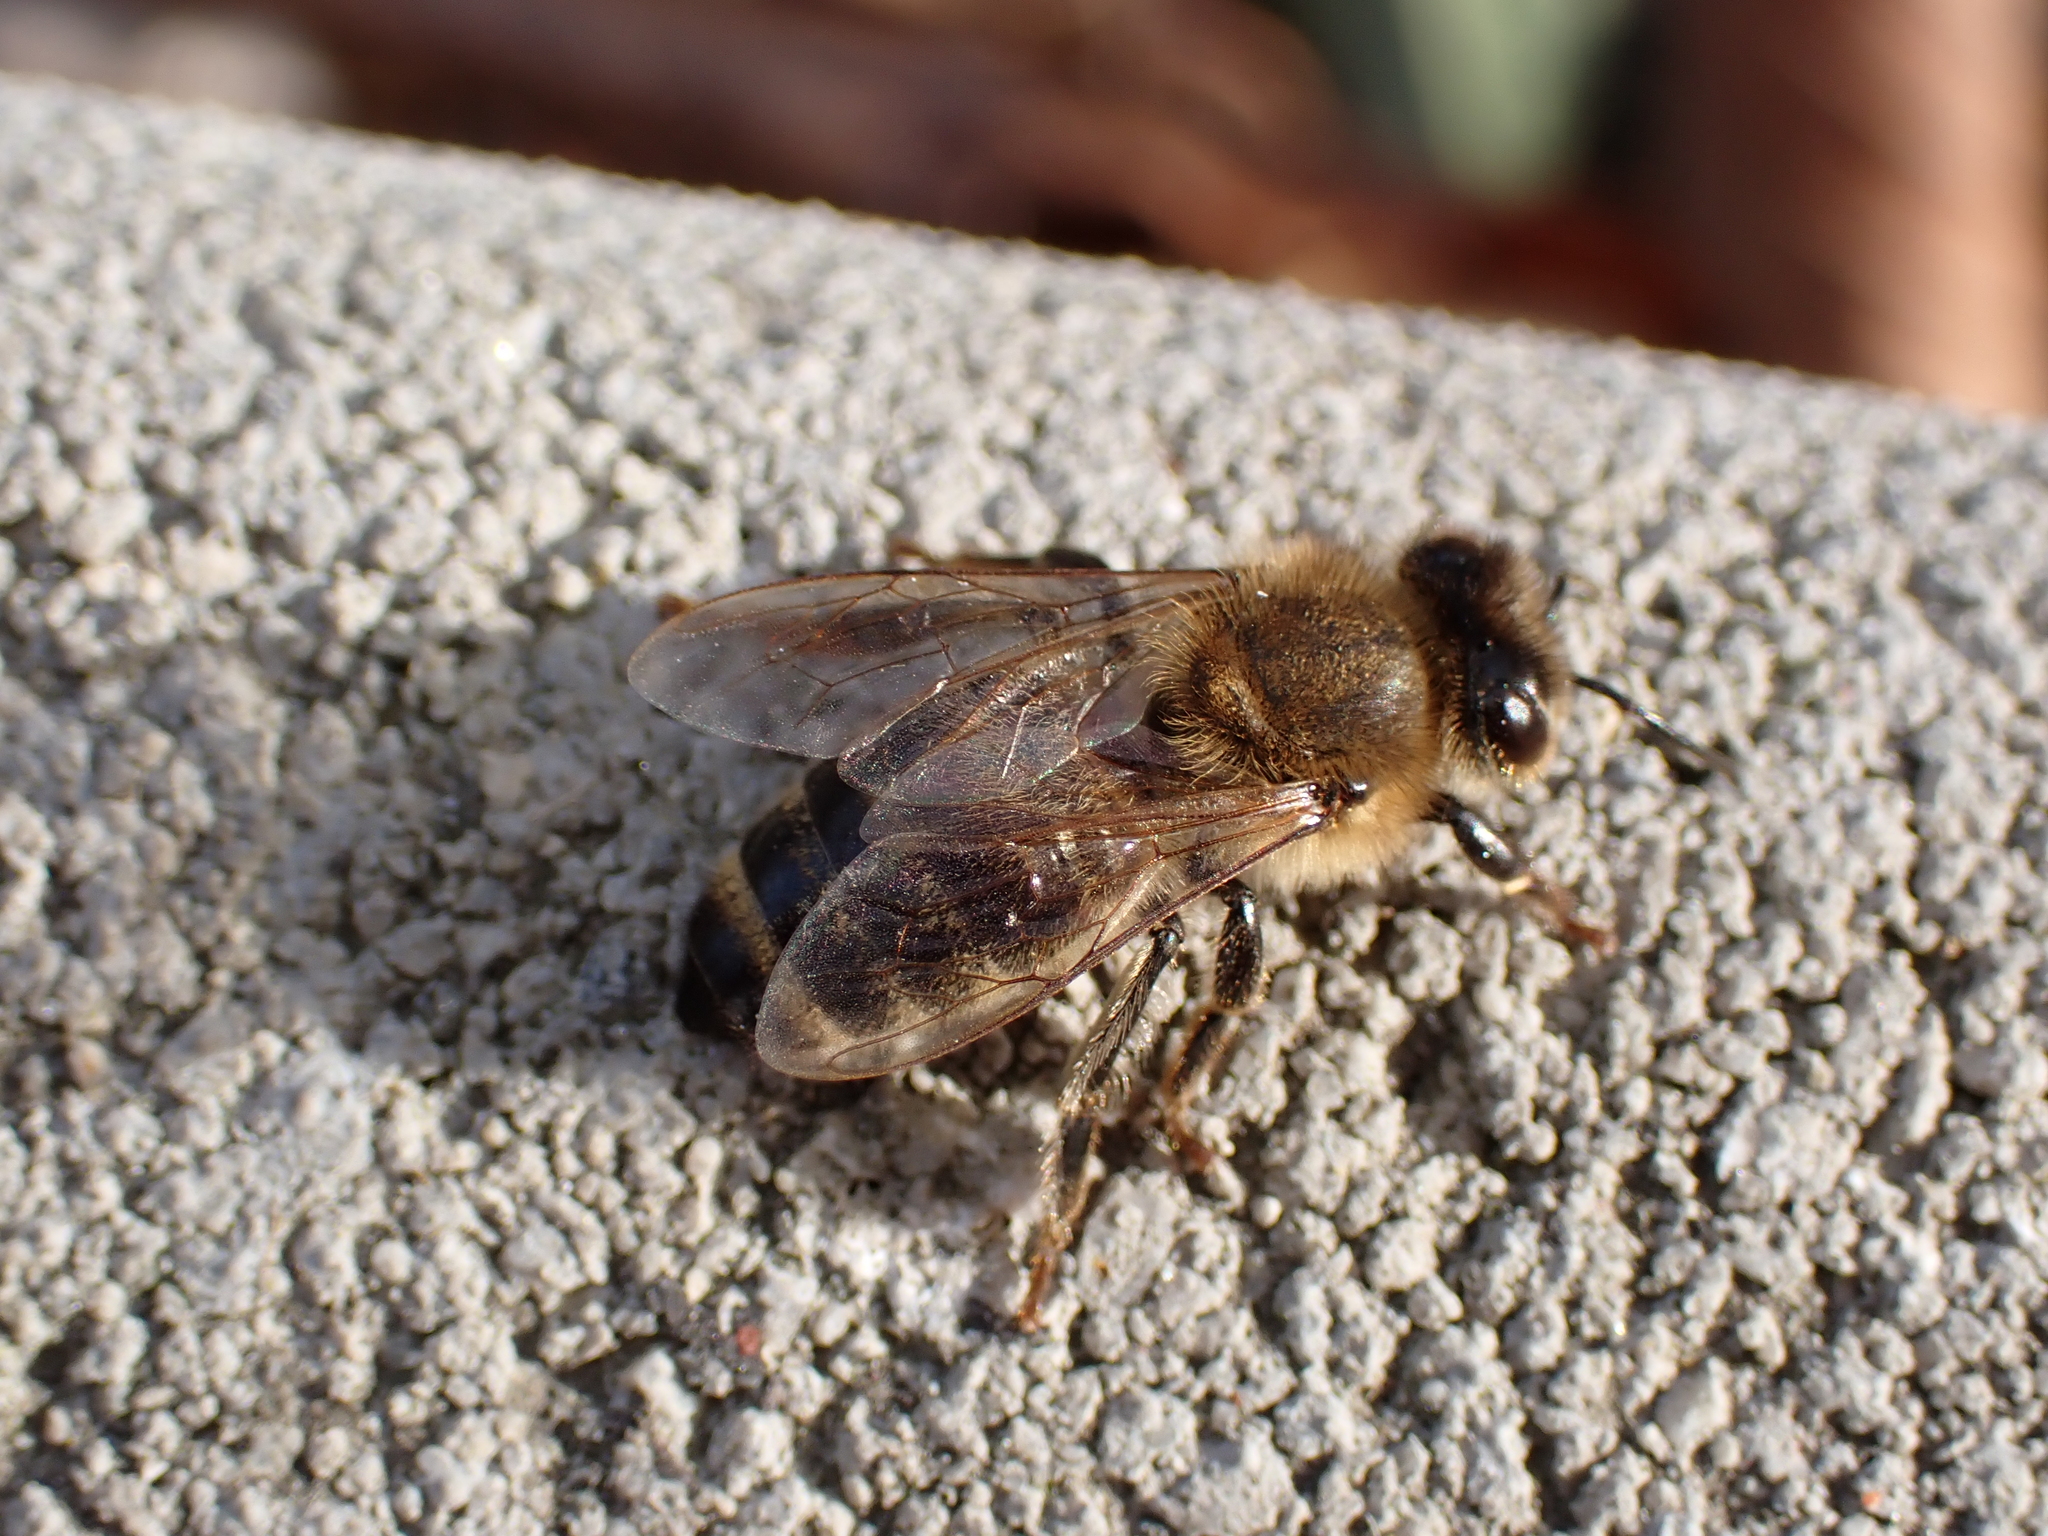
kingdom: Animalia
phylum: Arthropoda
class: Insecta
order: Hymenoptera
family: Apidae
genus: Apis
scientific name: Apis mellifera
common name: Honey bee
